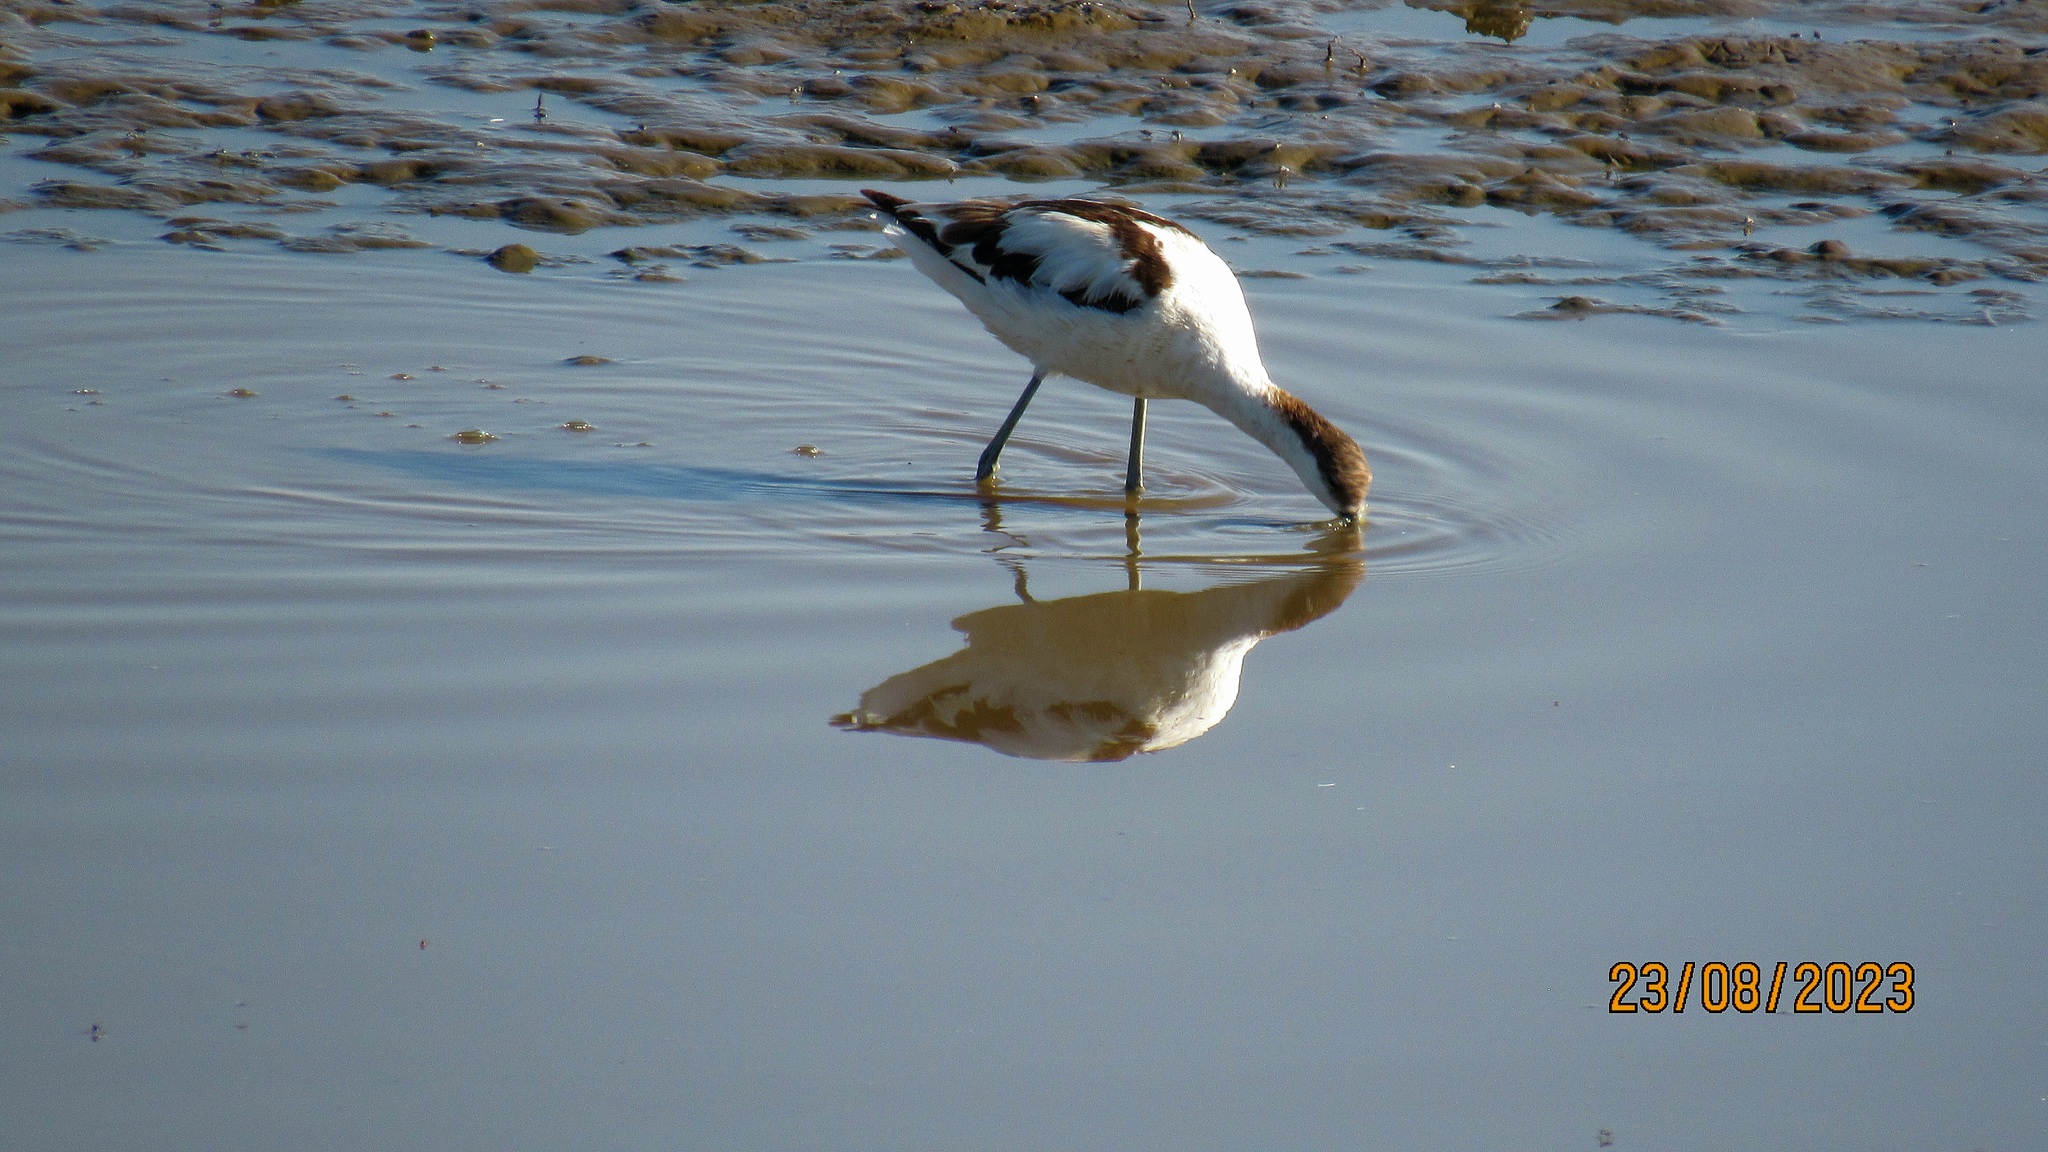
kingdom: Animalia
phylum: Chordata
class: Aves
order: Charadriiformes
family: Recurvirostridae
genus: Recurvirostra
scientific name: Recurvirostra avosetta
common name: Pied avocet
